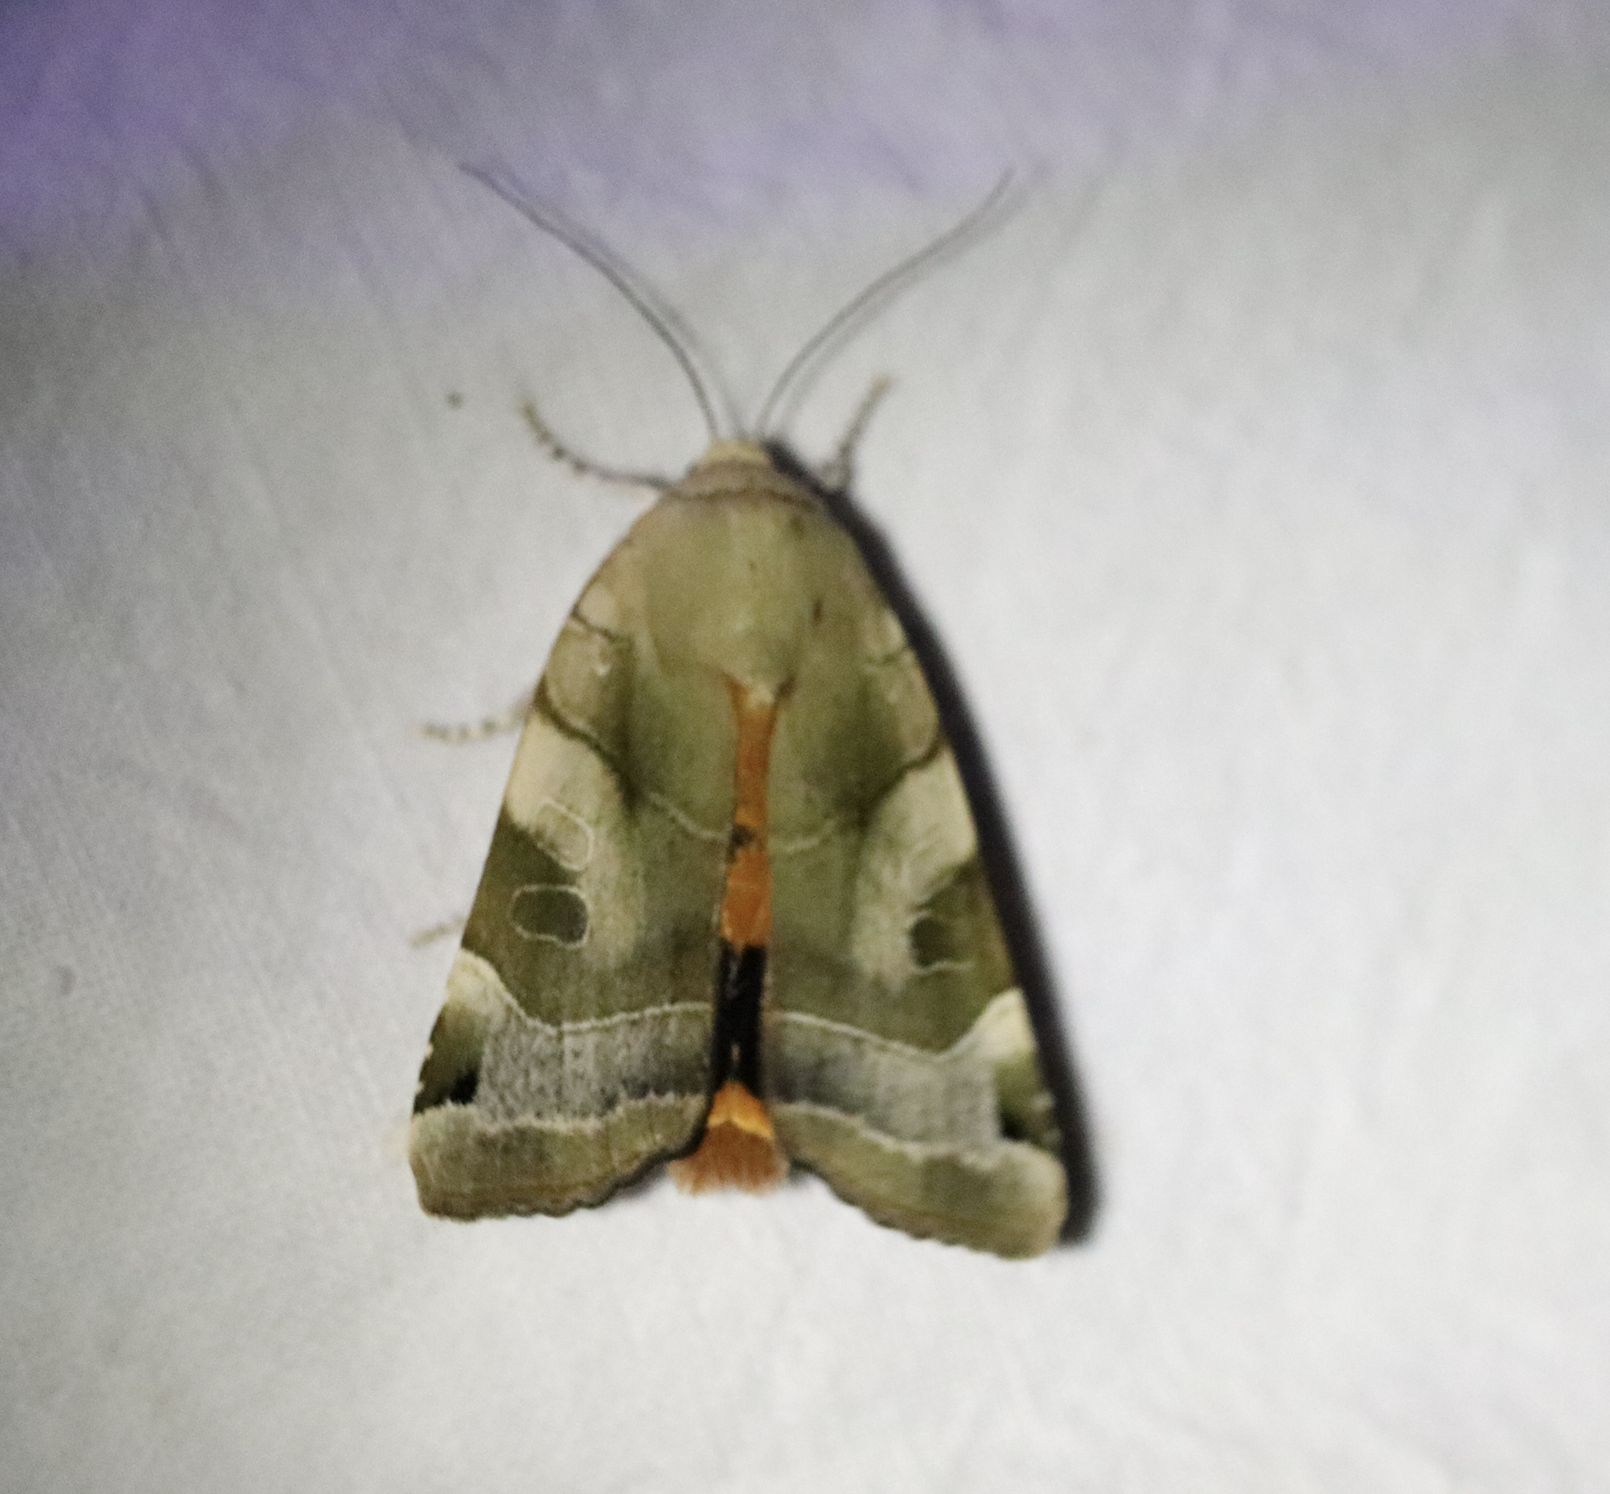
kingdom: Animalia
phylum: Arthropoda
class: Insecta
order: Lepidoptera
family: Noctuidae
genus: Noctua
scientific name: Noctua fimbriata
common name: Broad-bordered yellow underwing
